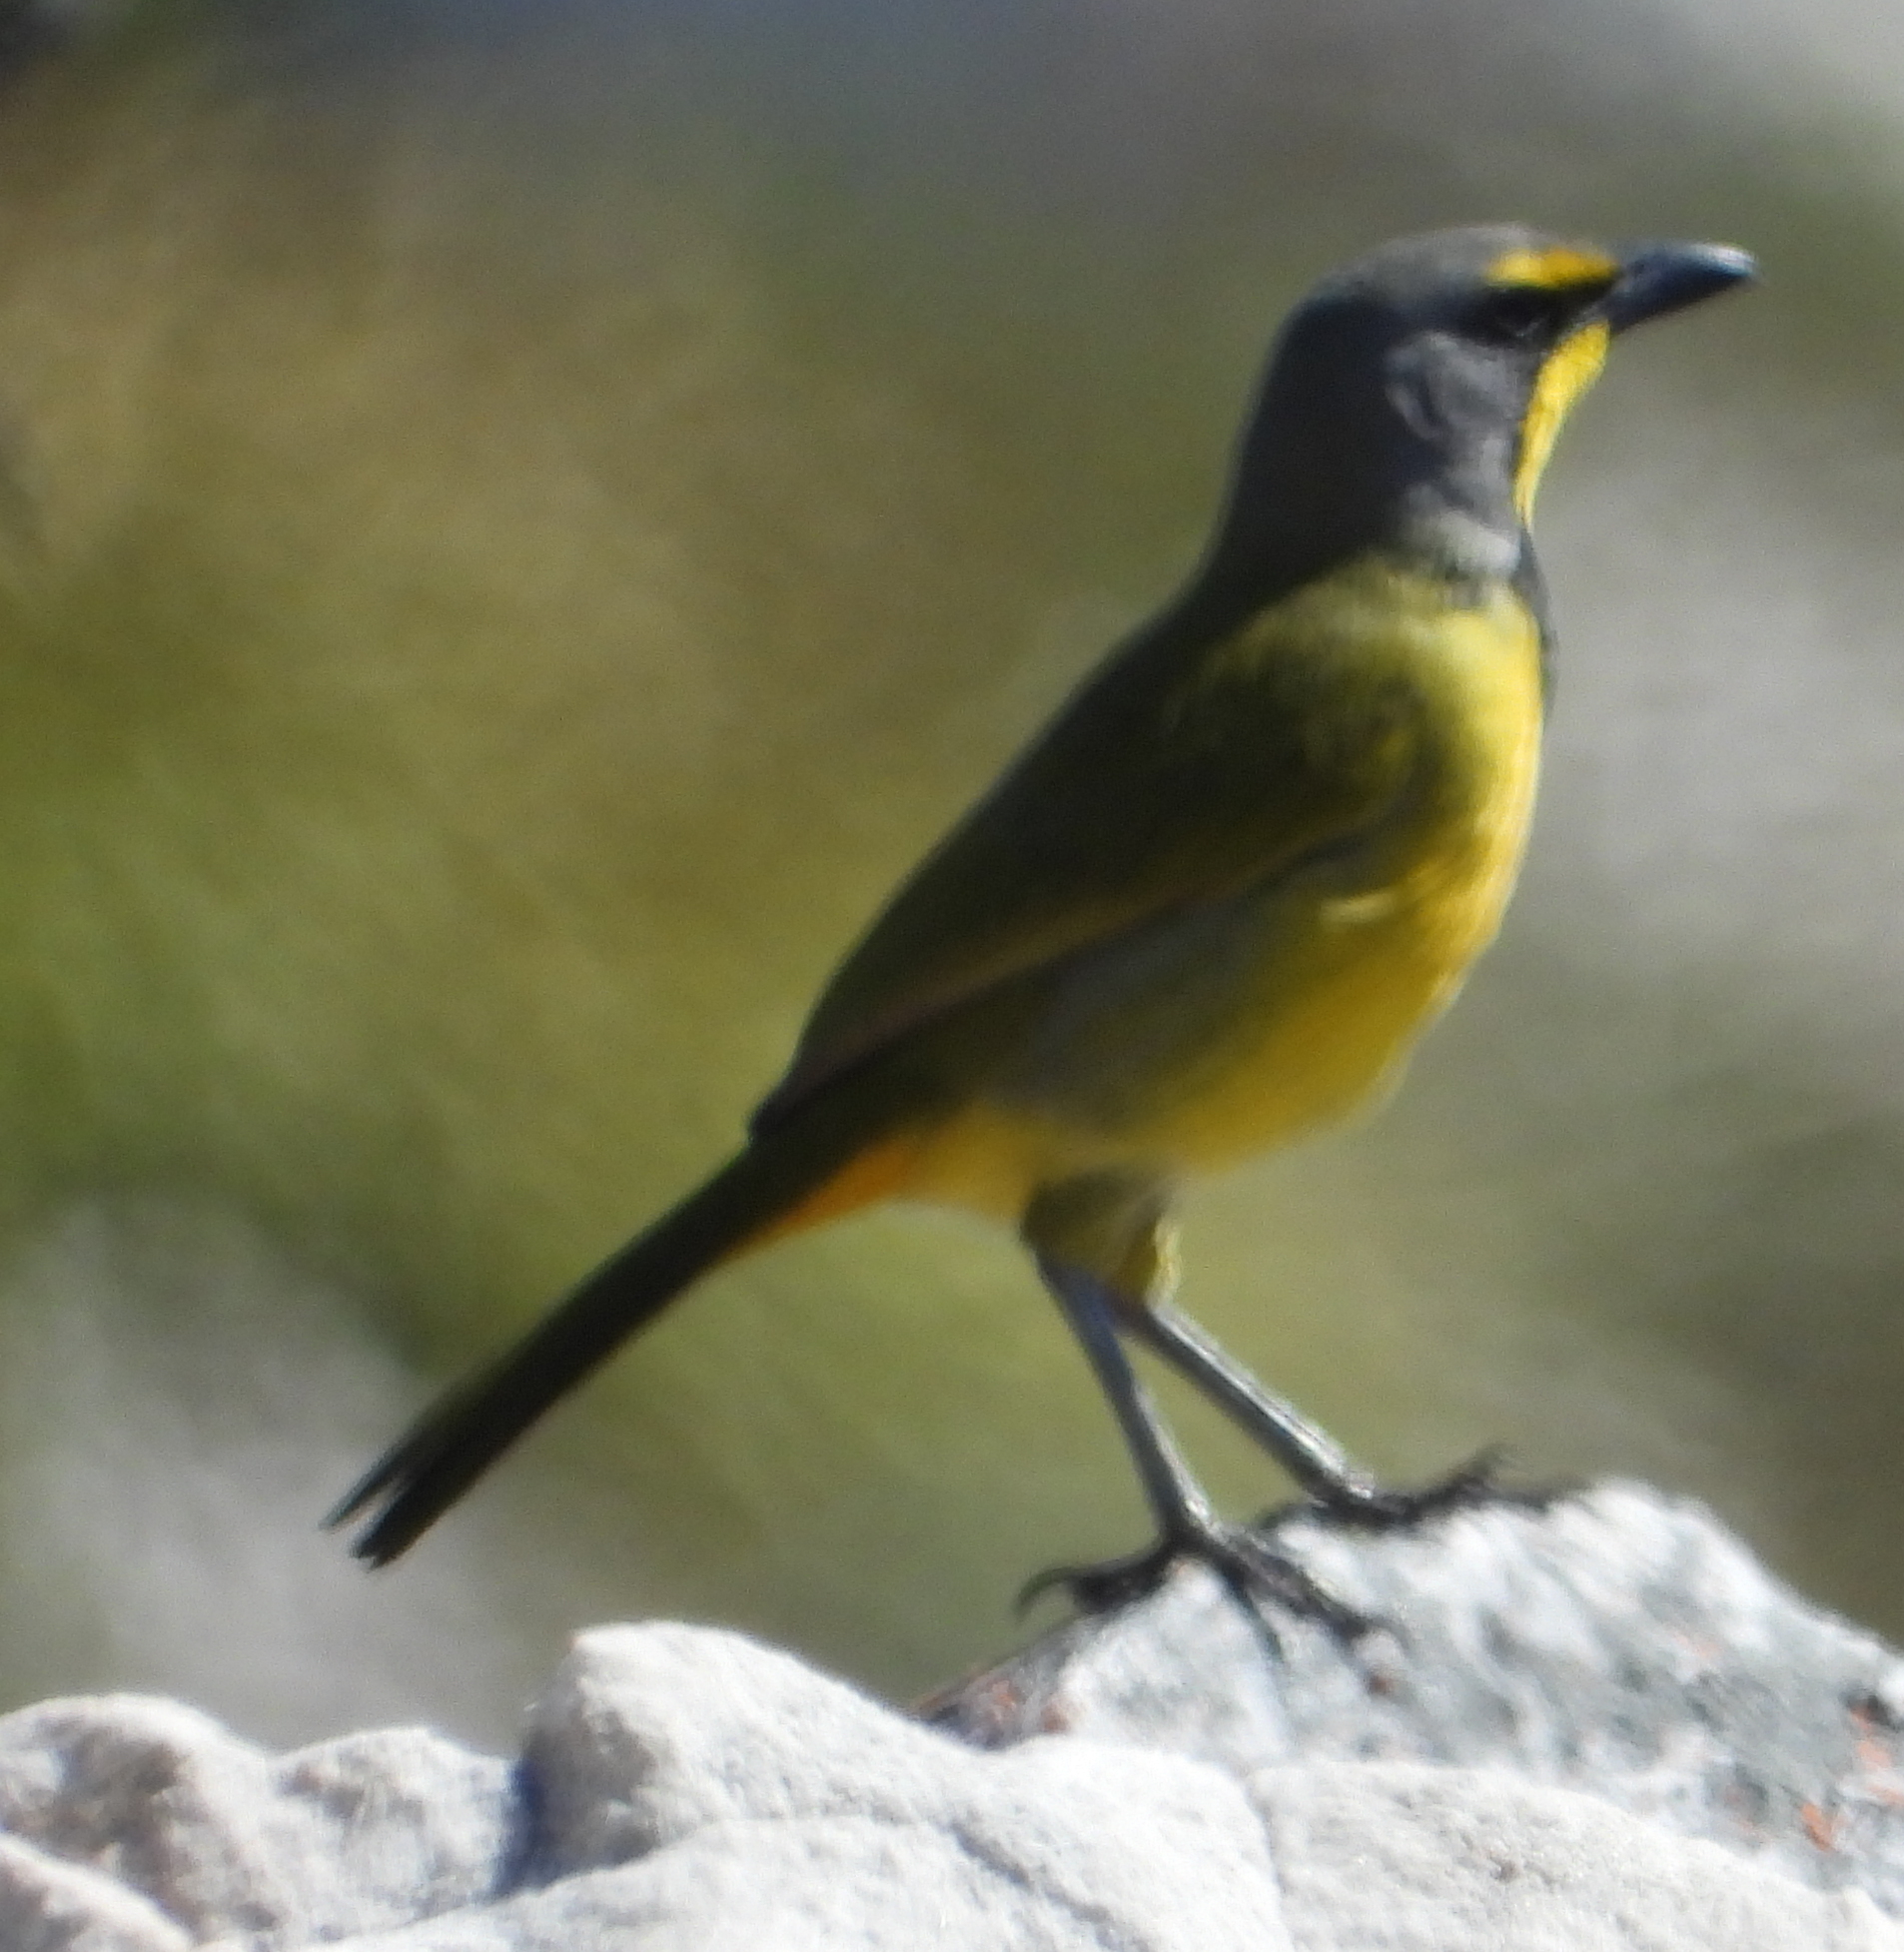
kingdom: Animalia
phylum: Chordata
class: Aves
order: Passeriformes
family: Malaconotidae
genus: Telophorus
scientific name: Telophorus zeylonus
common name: Bokmakierie
